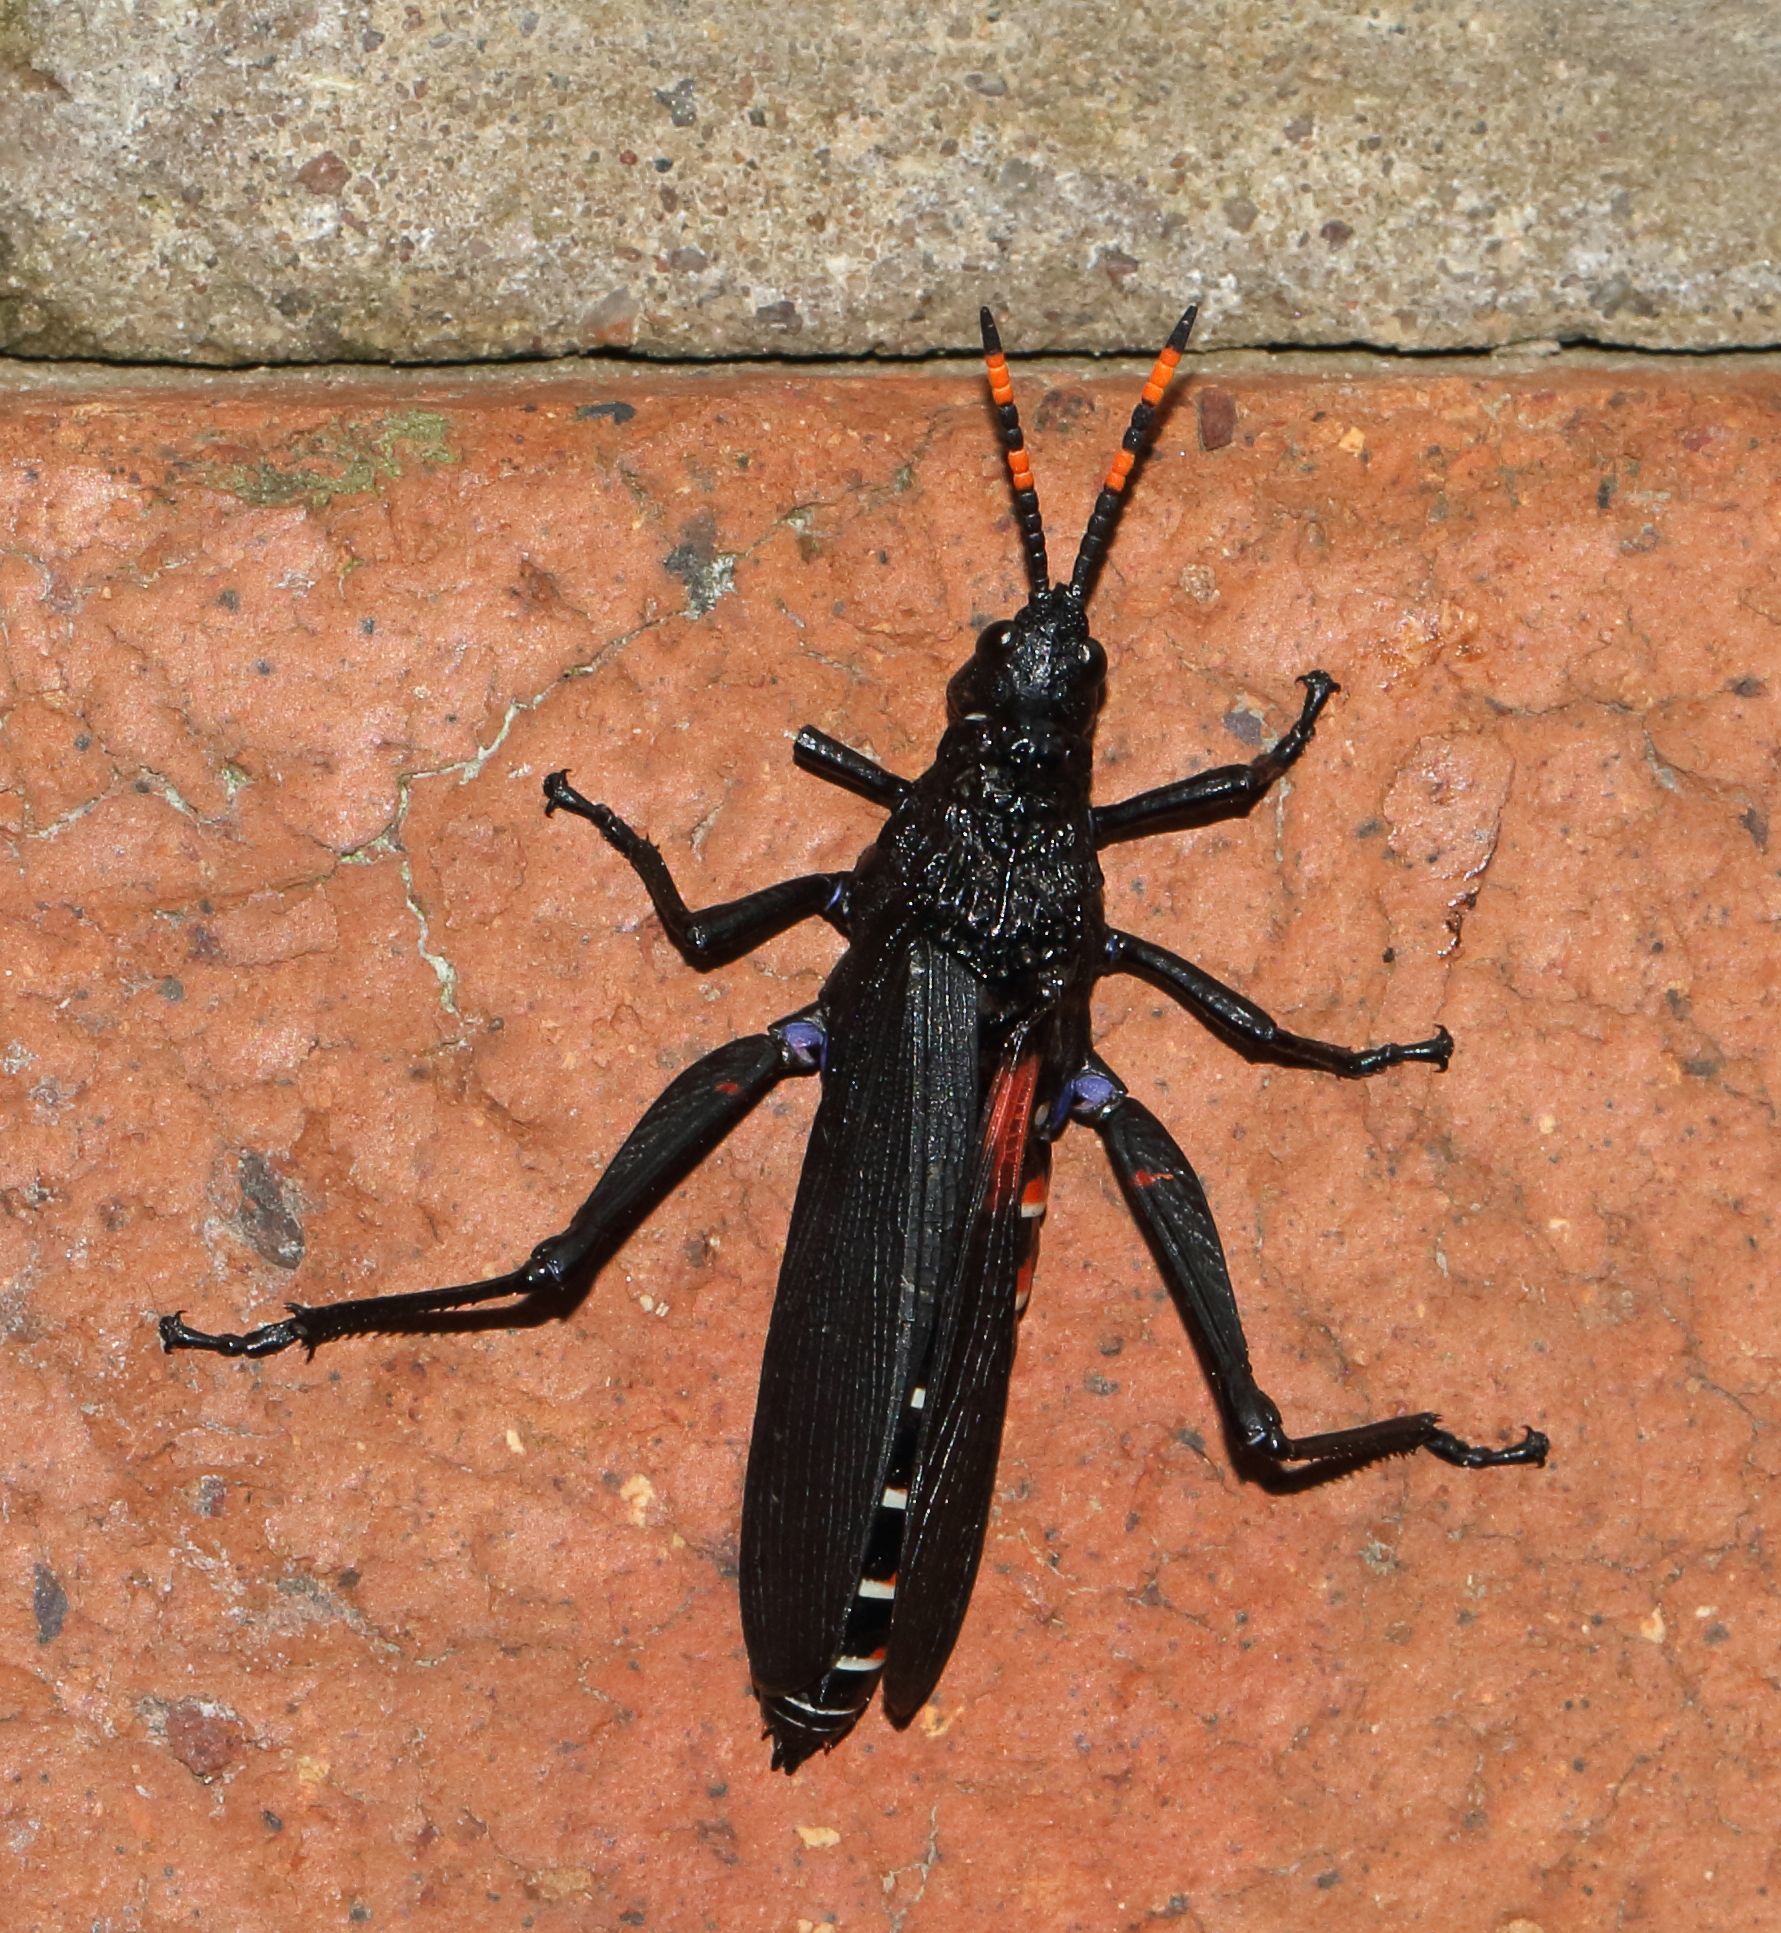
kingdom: Animalia
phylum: Arthropoda
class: Insecta
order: Orthoptera
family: Pyrgomorphidae
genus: Maura
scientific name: Maura rubroornata
